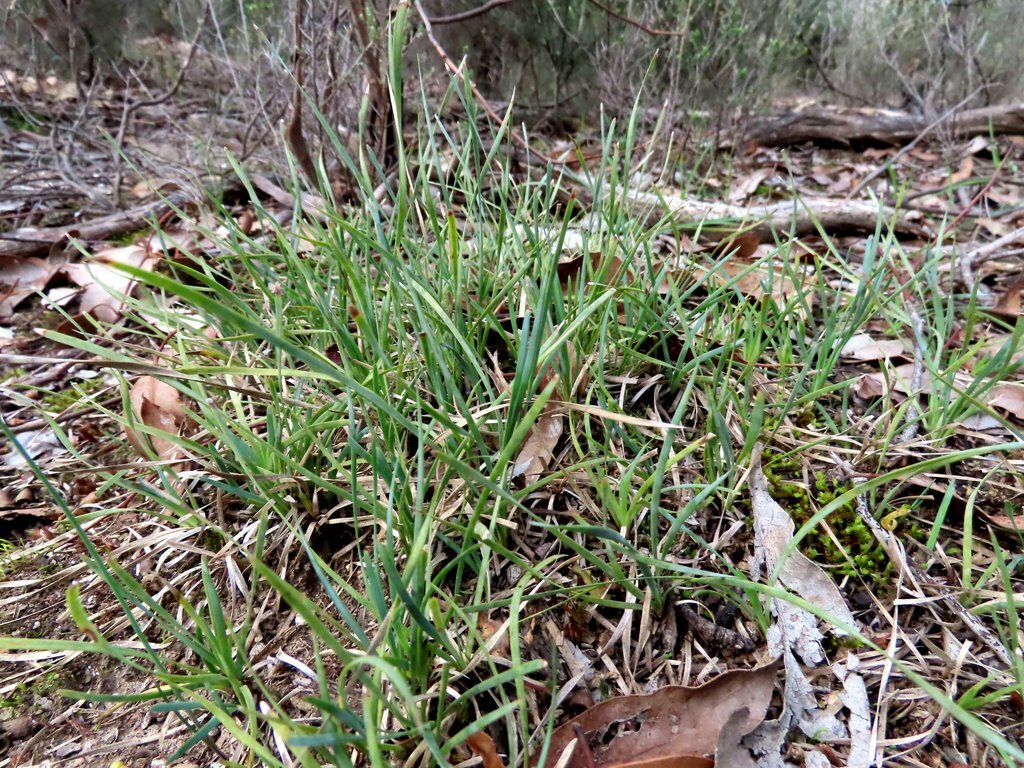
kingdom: Plantae
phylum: Tracheophyta
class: Liliopsida
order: Asparagales
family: Asparagaceae
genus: Lomandra
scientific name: Lomandra nana
